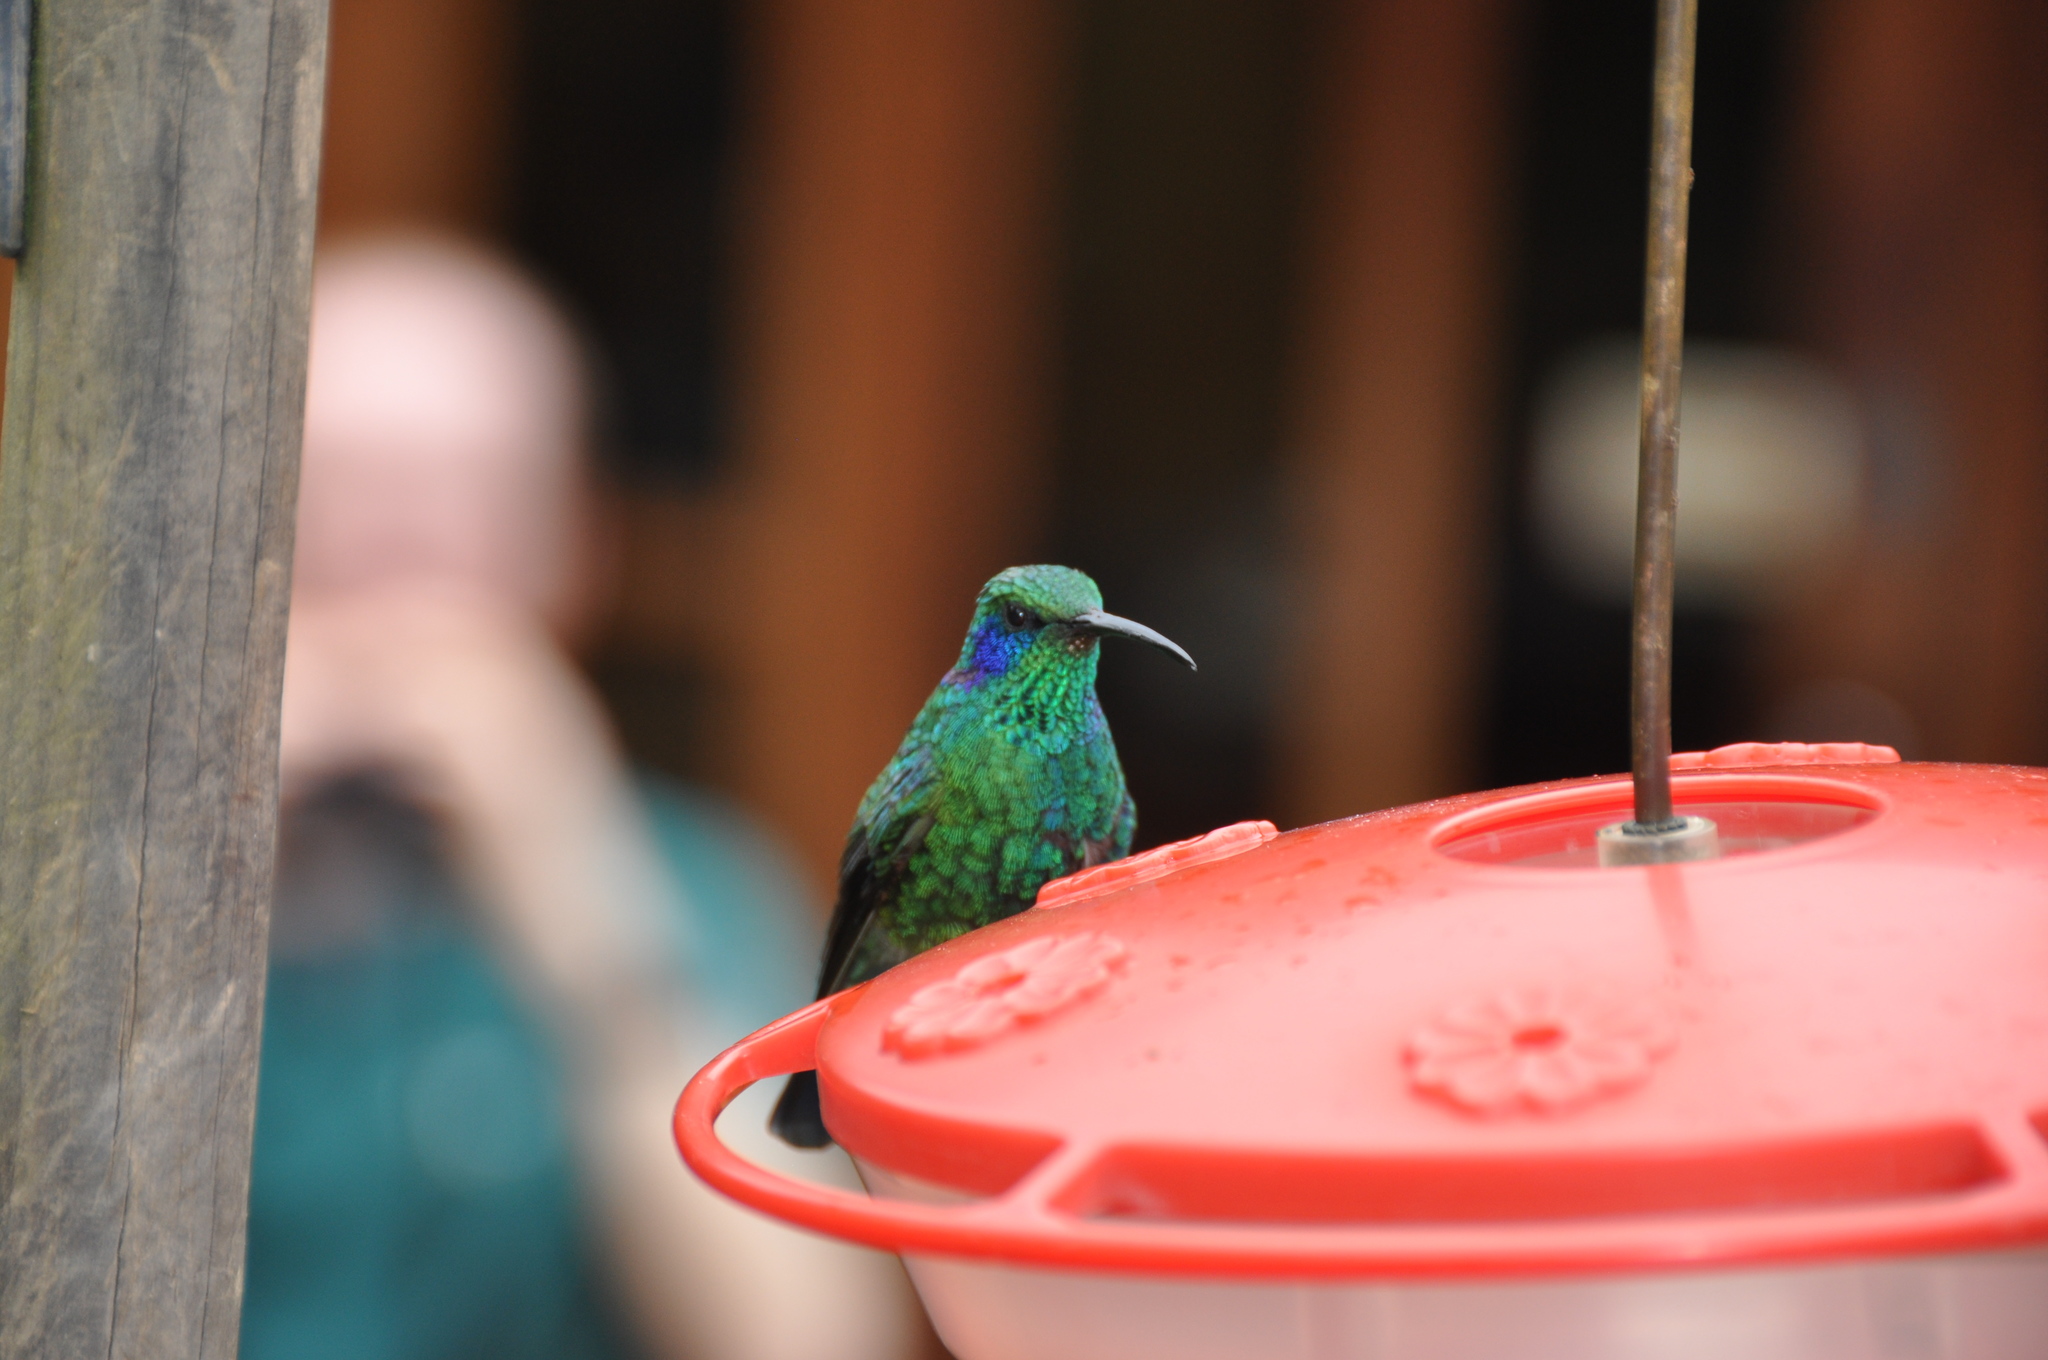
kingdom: Animalia
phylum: Chordata
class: Aves
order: Apodiformes
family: Trochilidae
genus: Colibri
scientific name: Colibri cyanotus
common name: Lesser violetear
